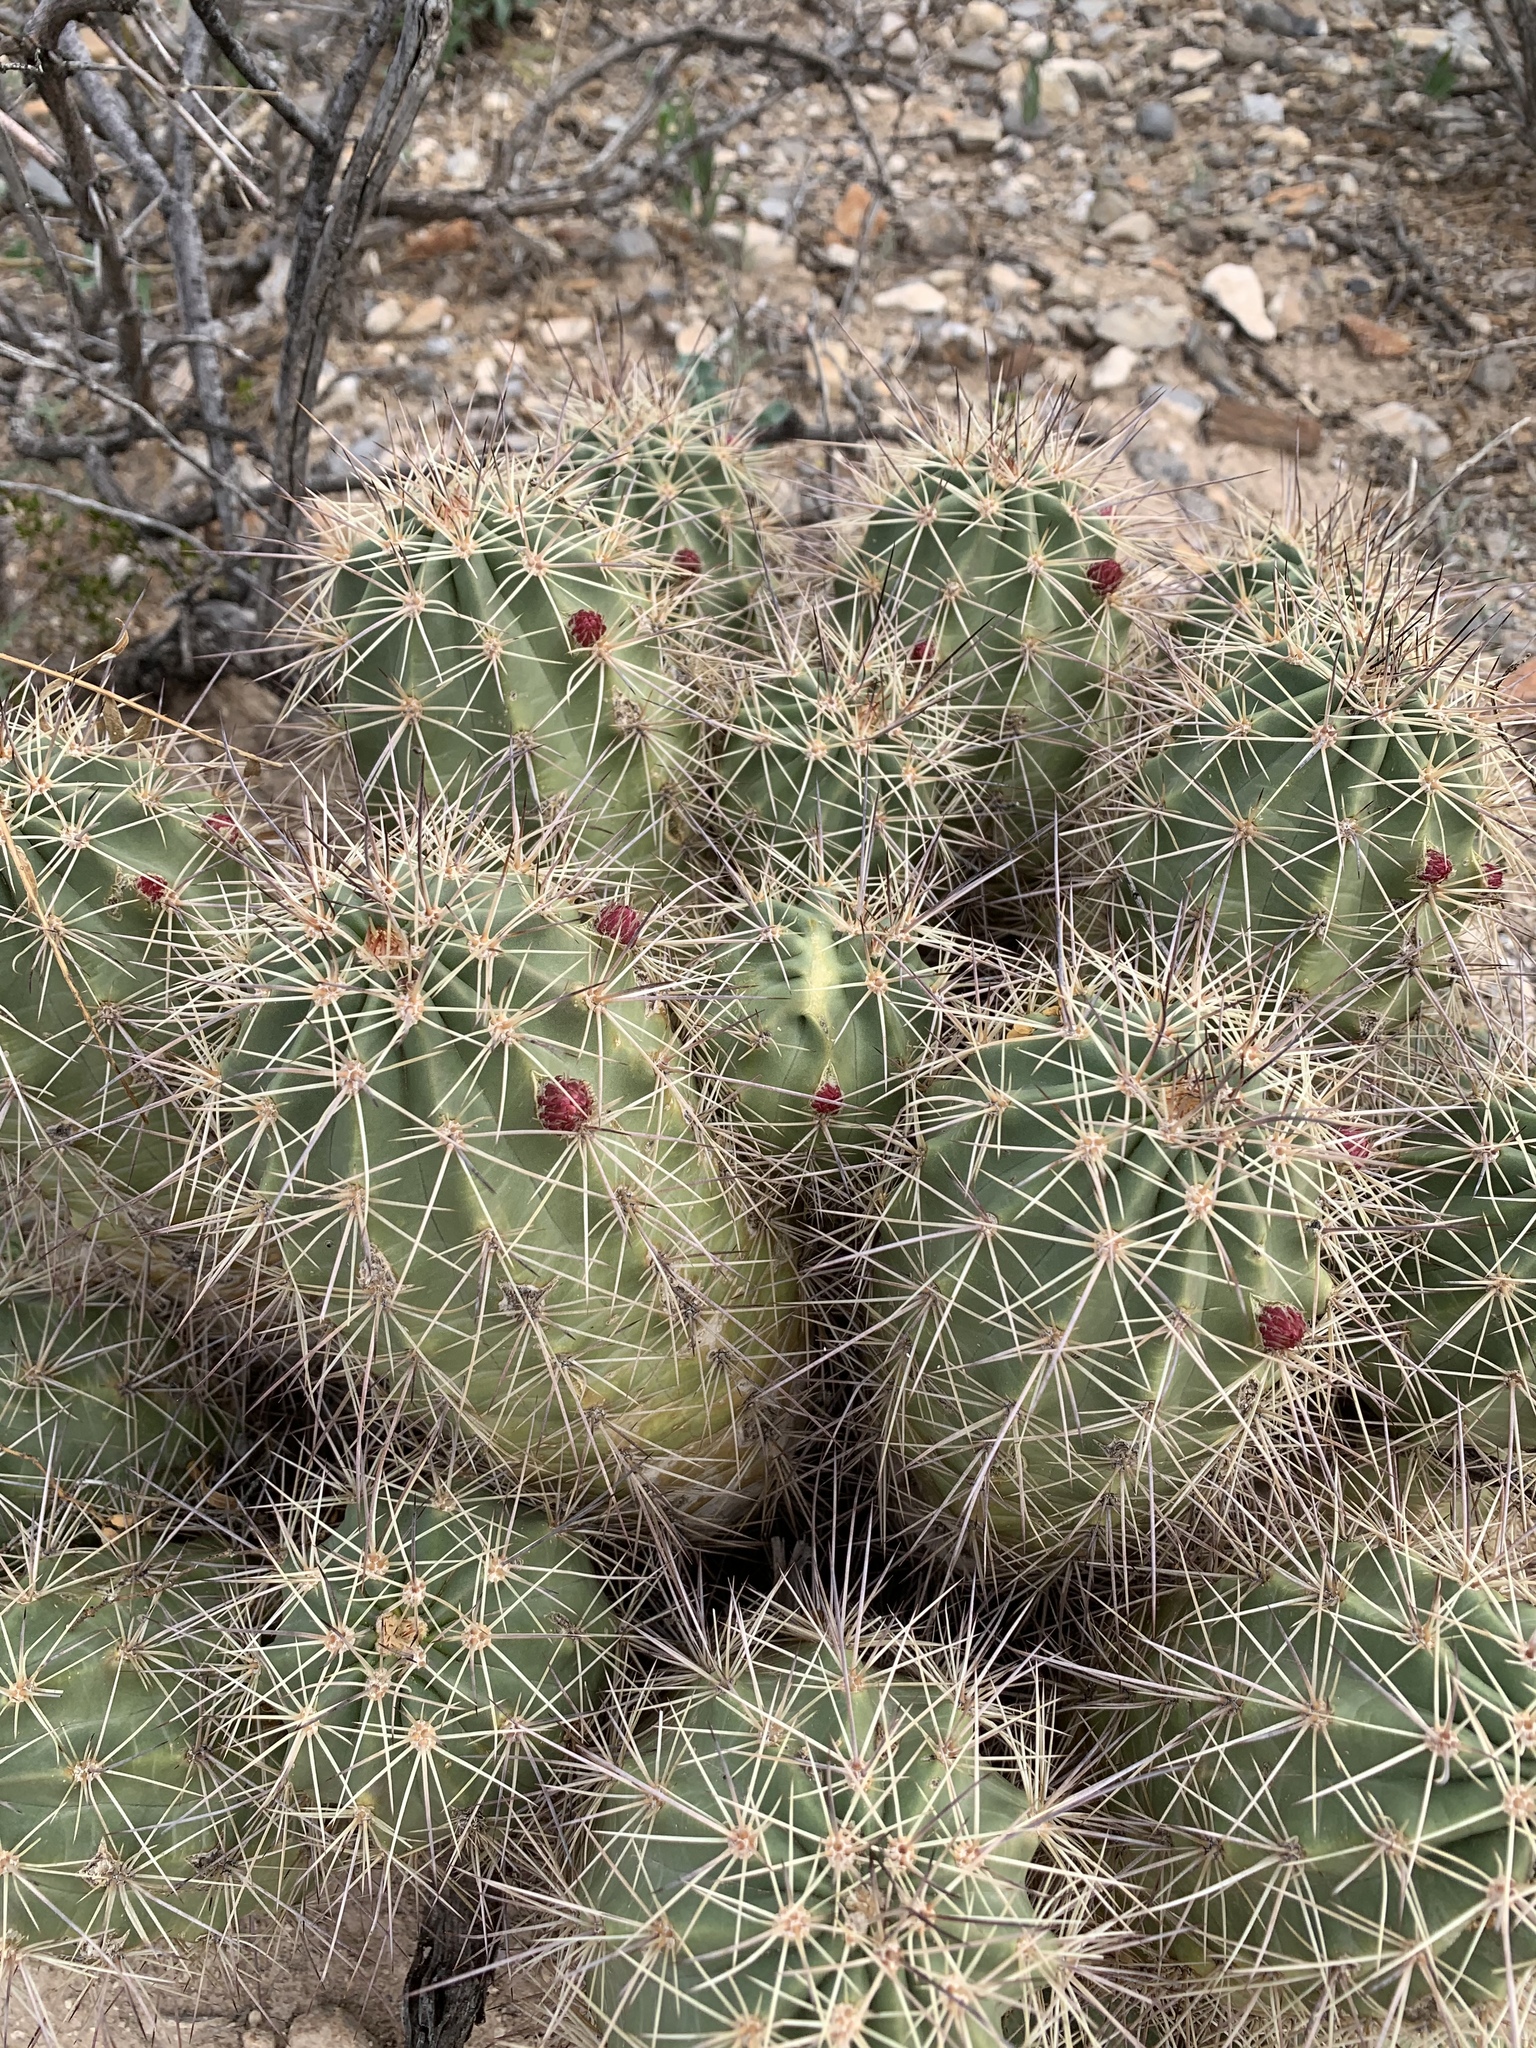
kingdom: Plantae
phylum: Tracheophyta
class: Magnoliopsida
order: Caryophyllales
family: Cactaceae
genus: Echinocereus
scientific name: Echinocereus coccineus
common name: Scarlet hedgehog cactus
